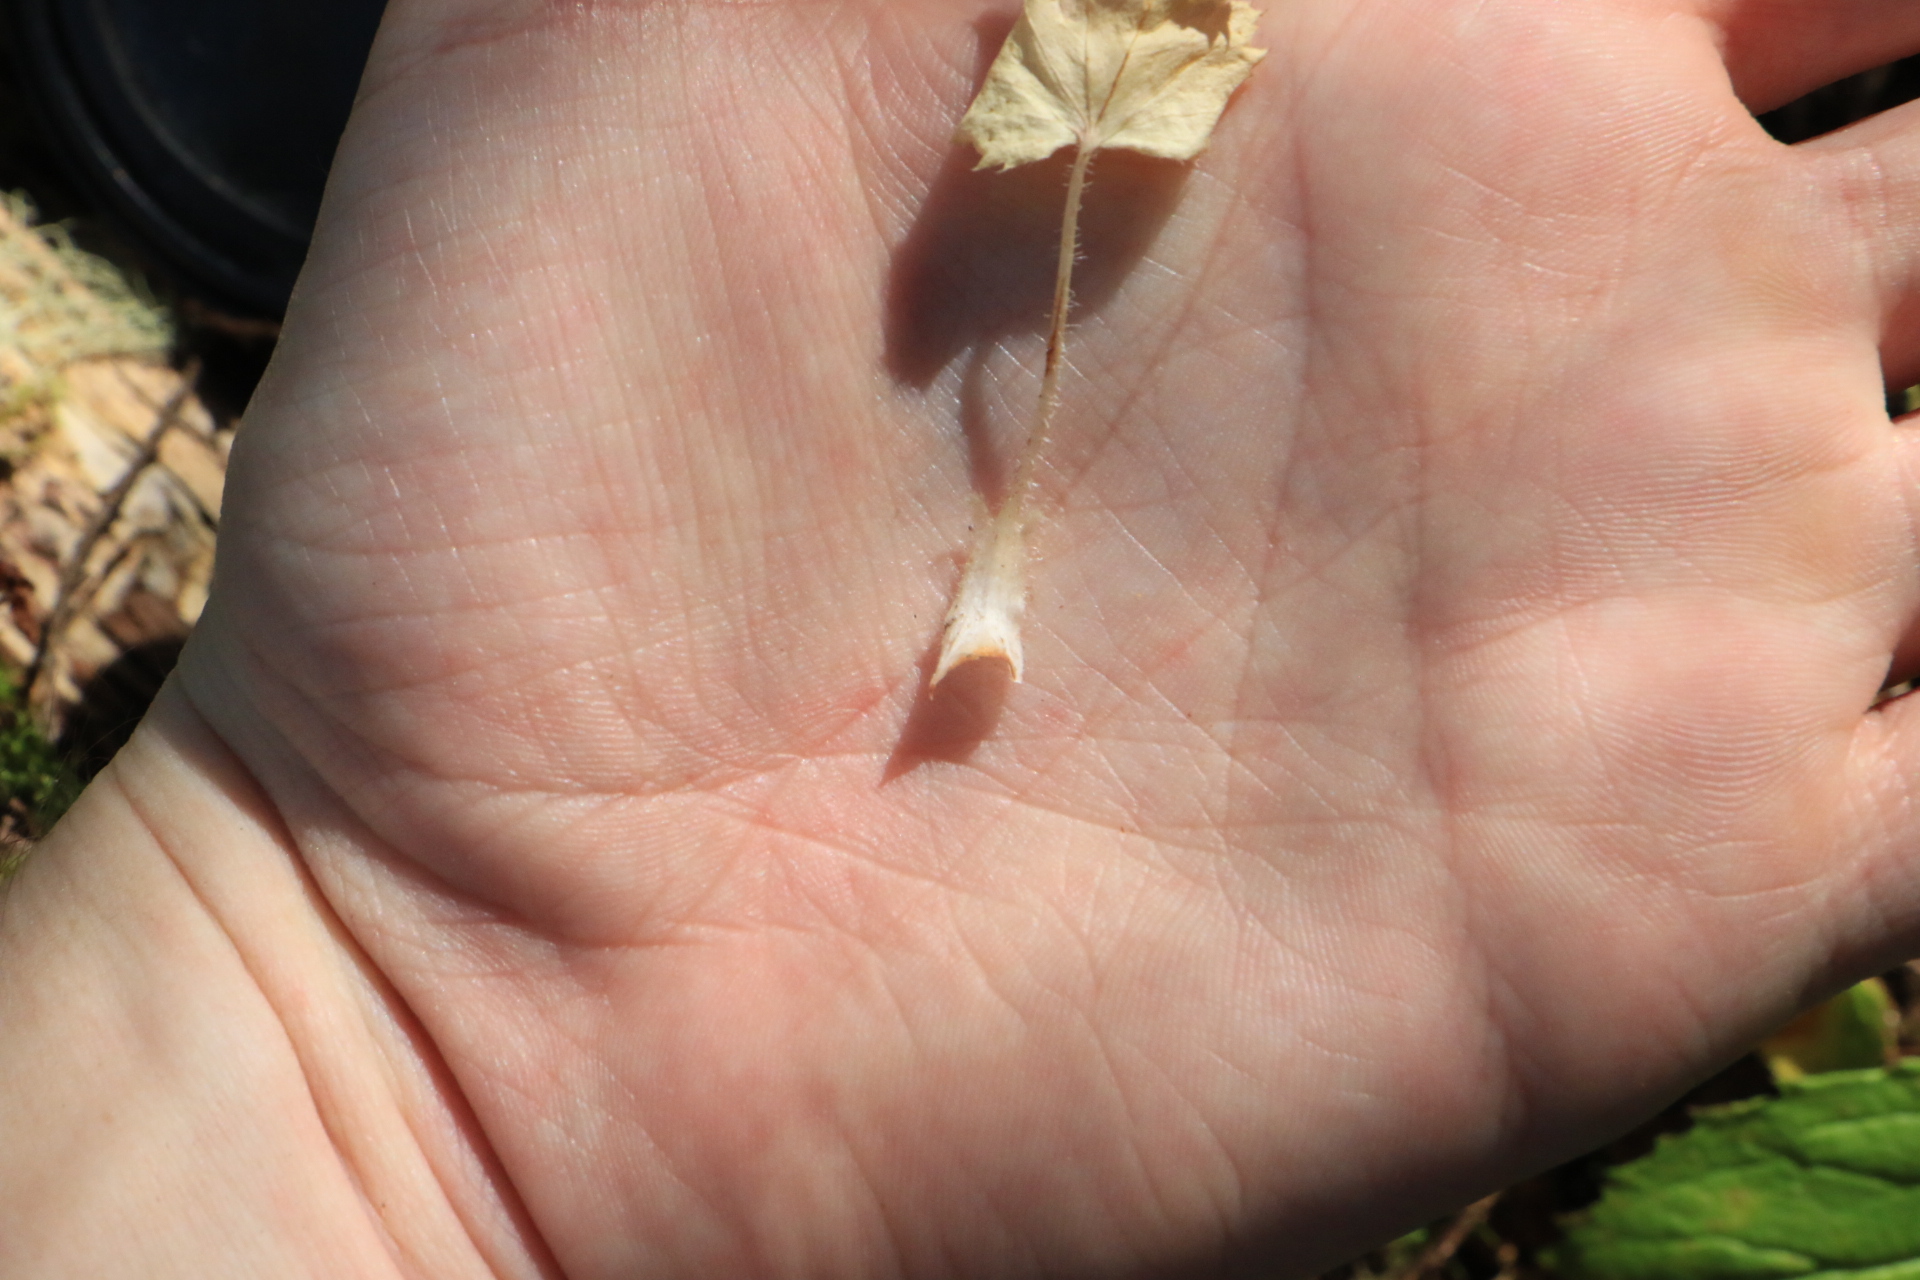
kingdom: Plantae
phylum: Tracheophyta
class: Magnoliopsida
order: Saxifragales
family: Saxifragaceae
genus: Heuchera
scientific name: Heuchera micrantha
